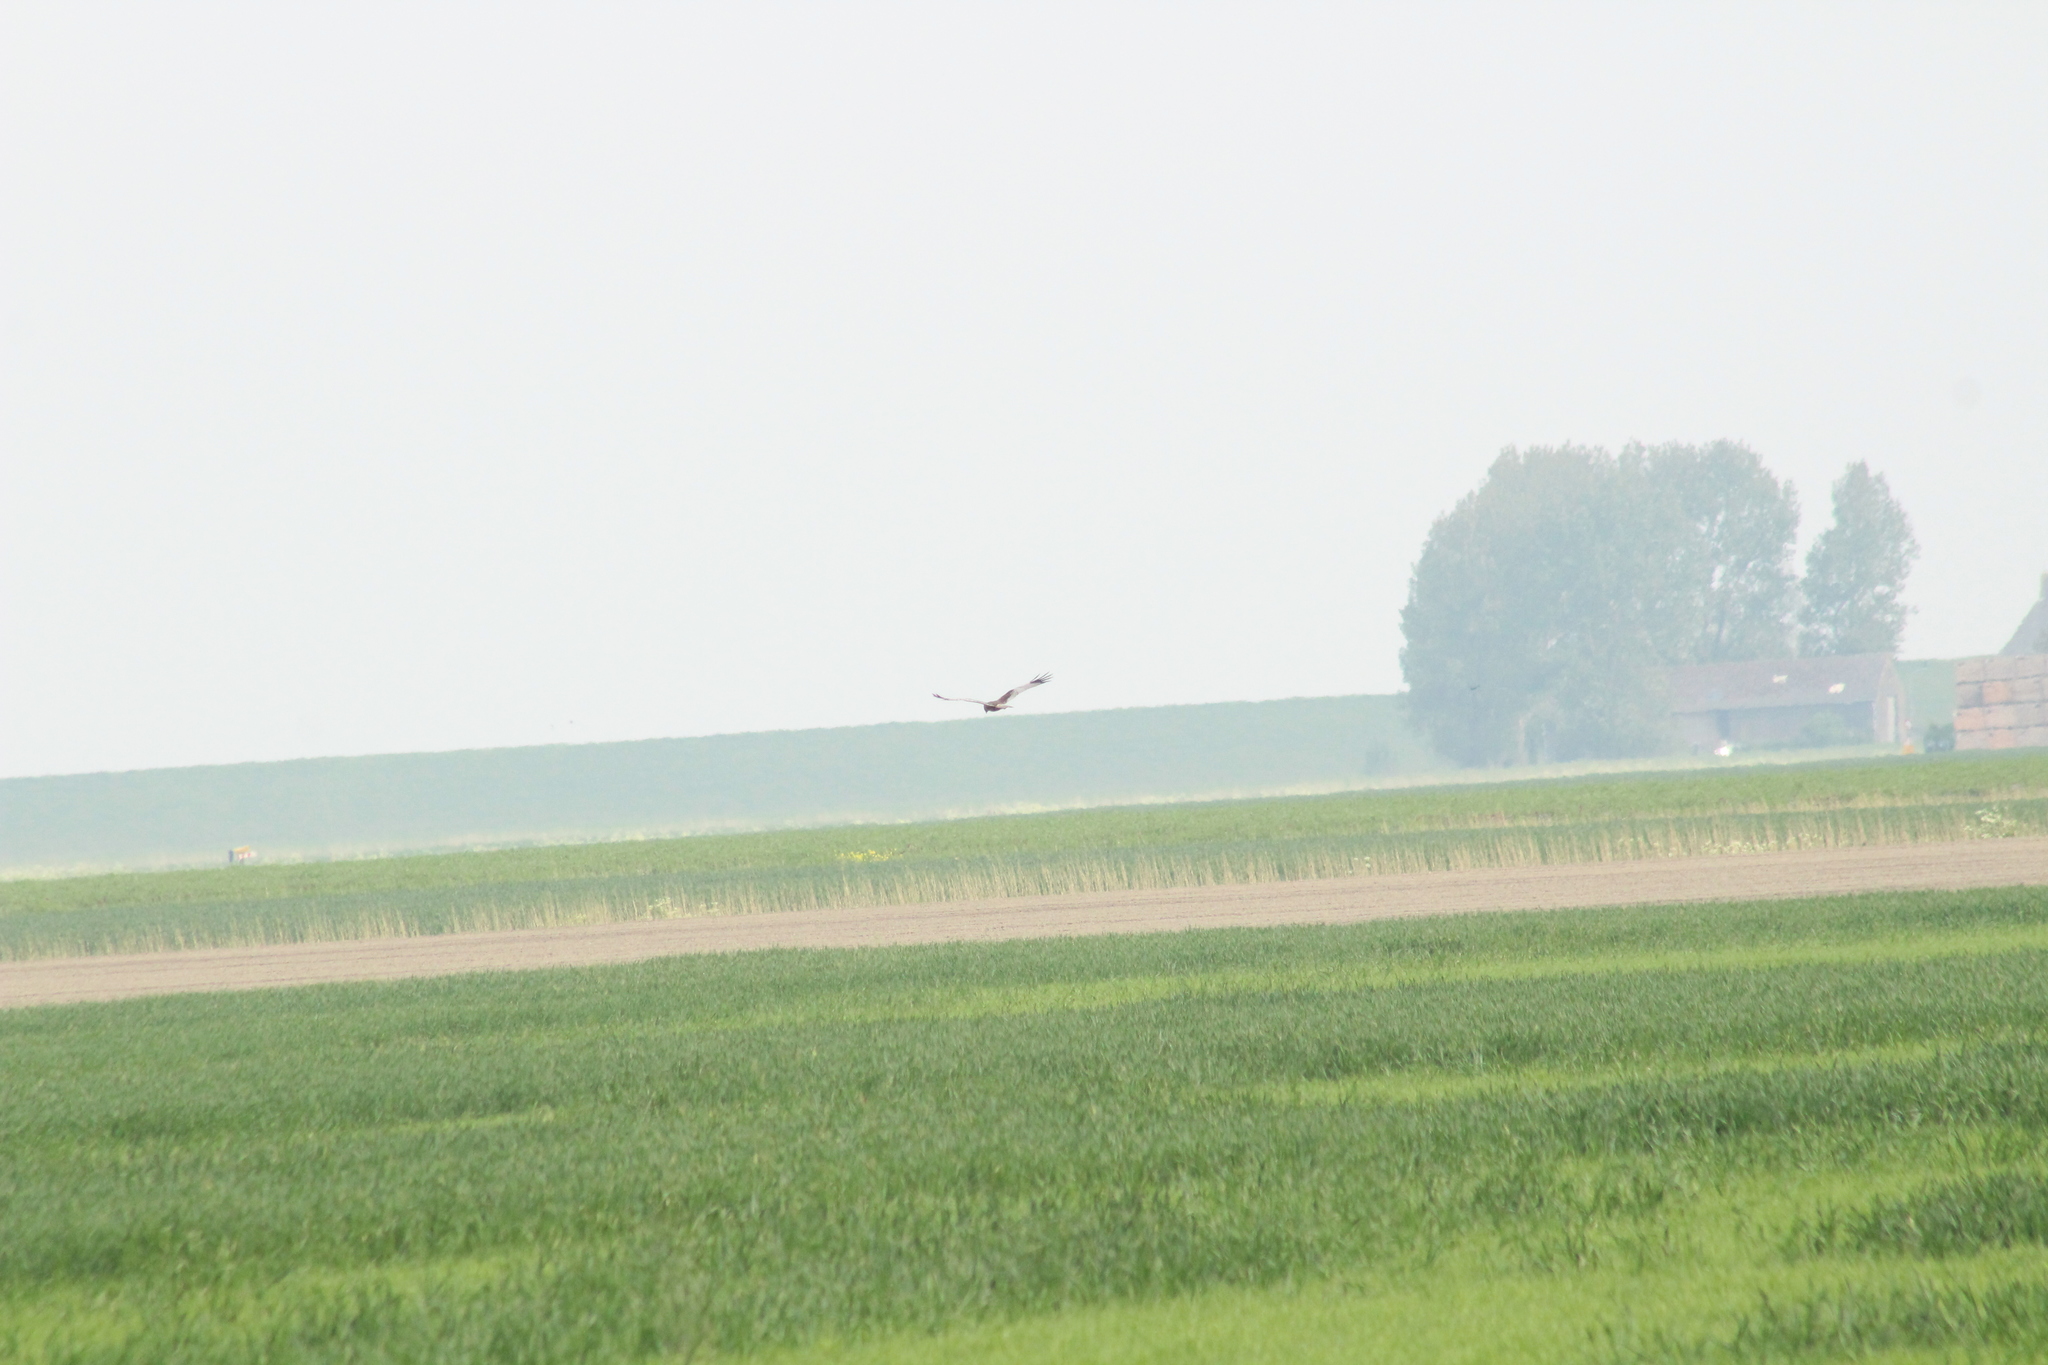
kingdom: Animalia
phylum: Chordata
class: Aves
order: Accipitriformes
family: Accipitridae
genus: Circus
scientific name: Circus aeruginosus
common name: Western marsh harrier
